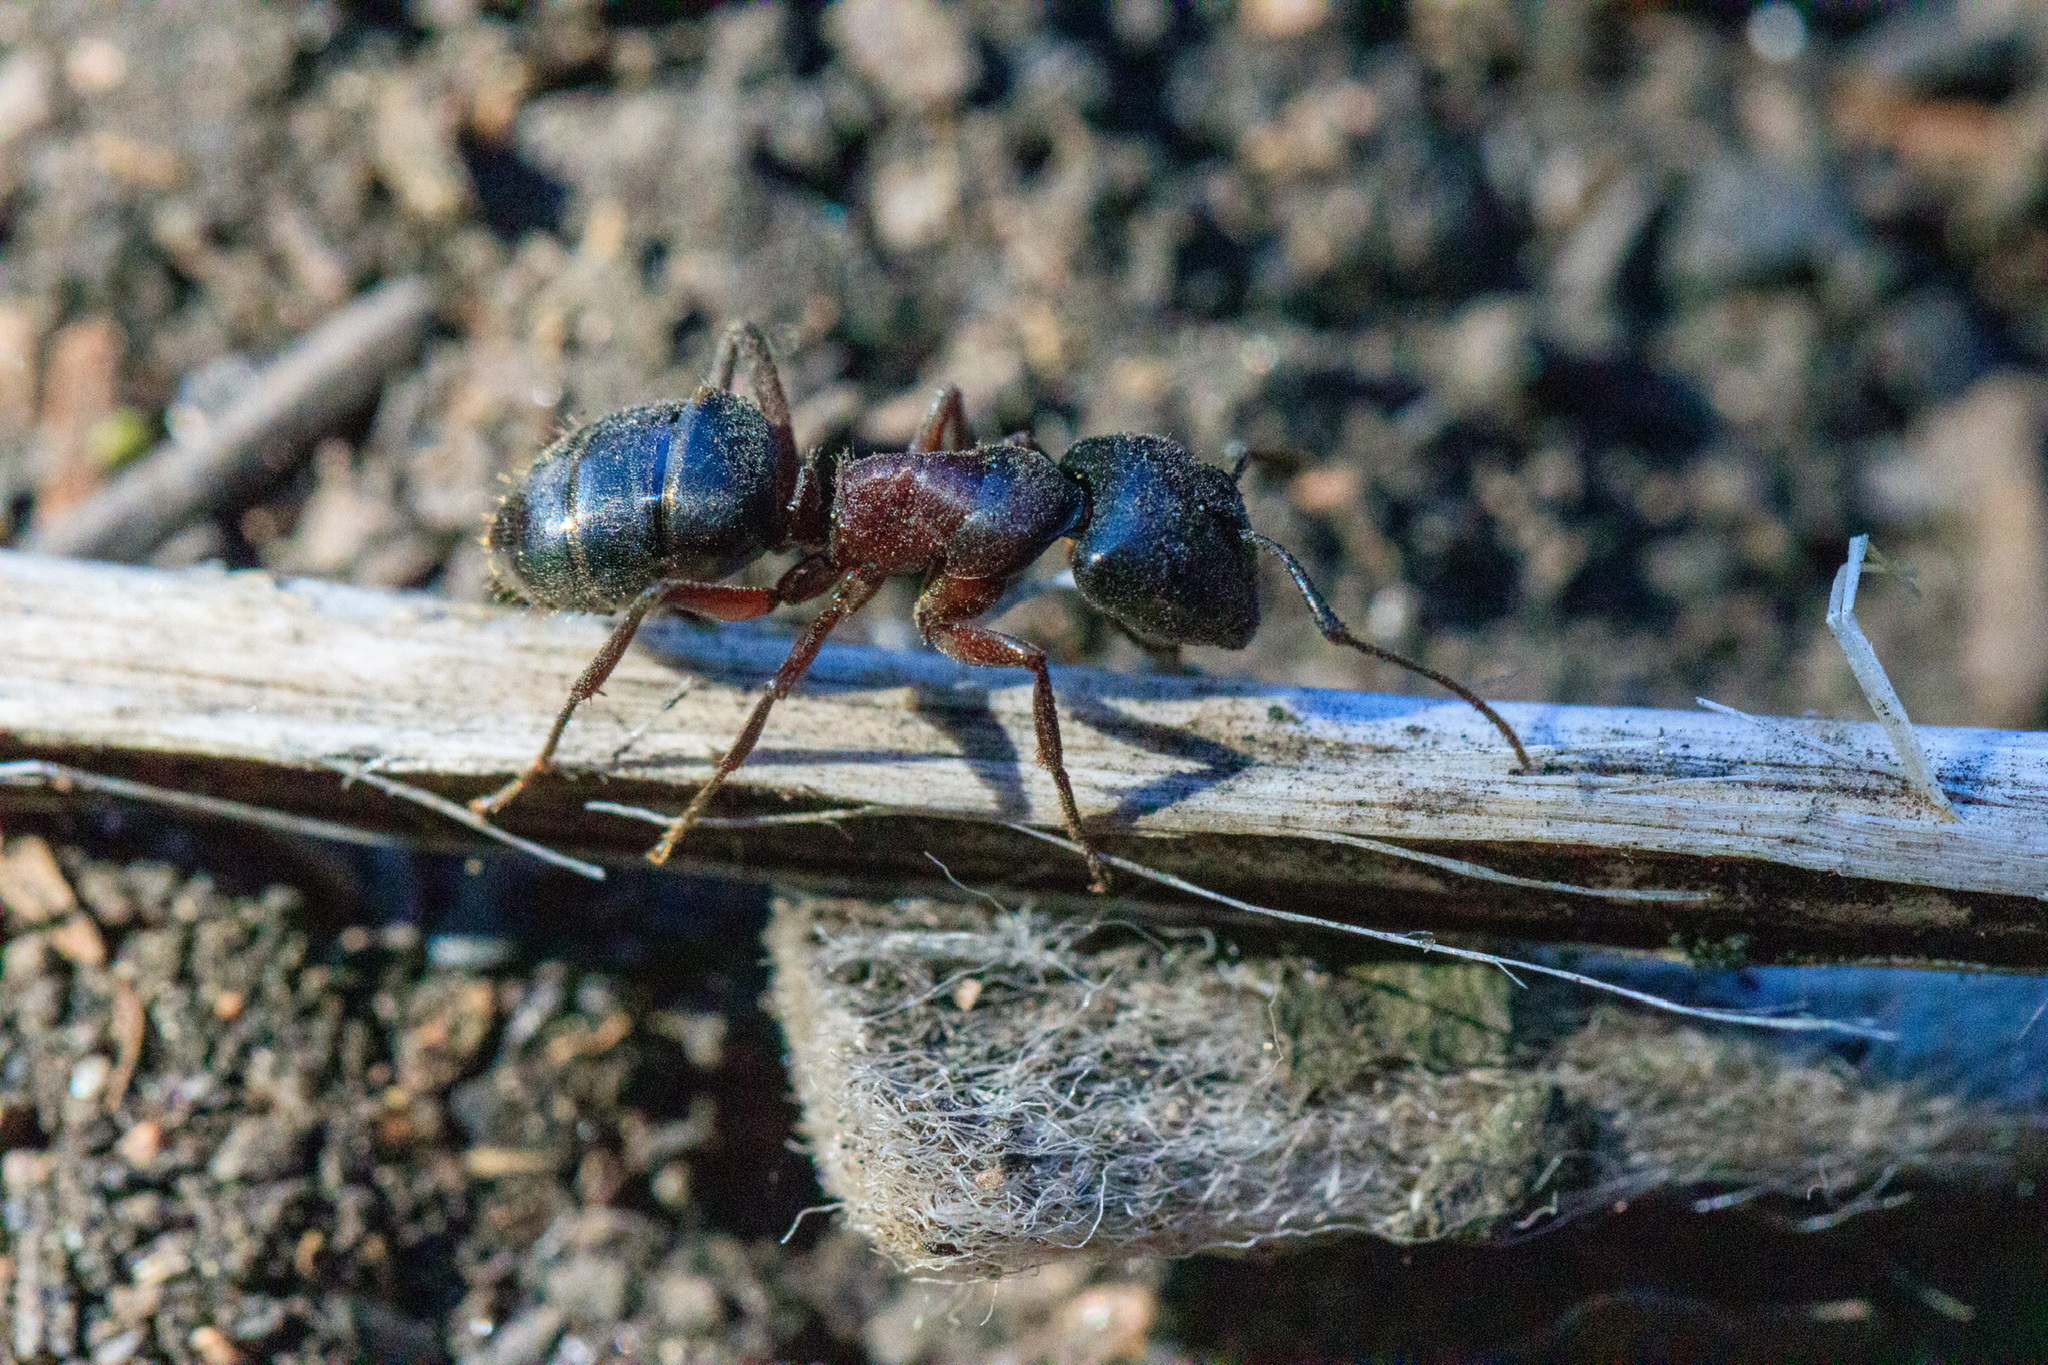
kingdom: Animalia
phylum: Arthropoda
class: Insecta
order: Hymenoptera
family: Formicidae
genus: Camponotus
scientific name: Camponotus herculeanus
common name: Hercules ant
